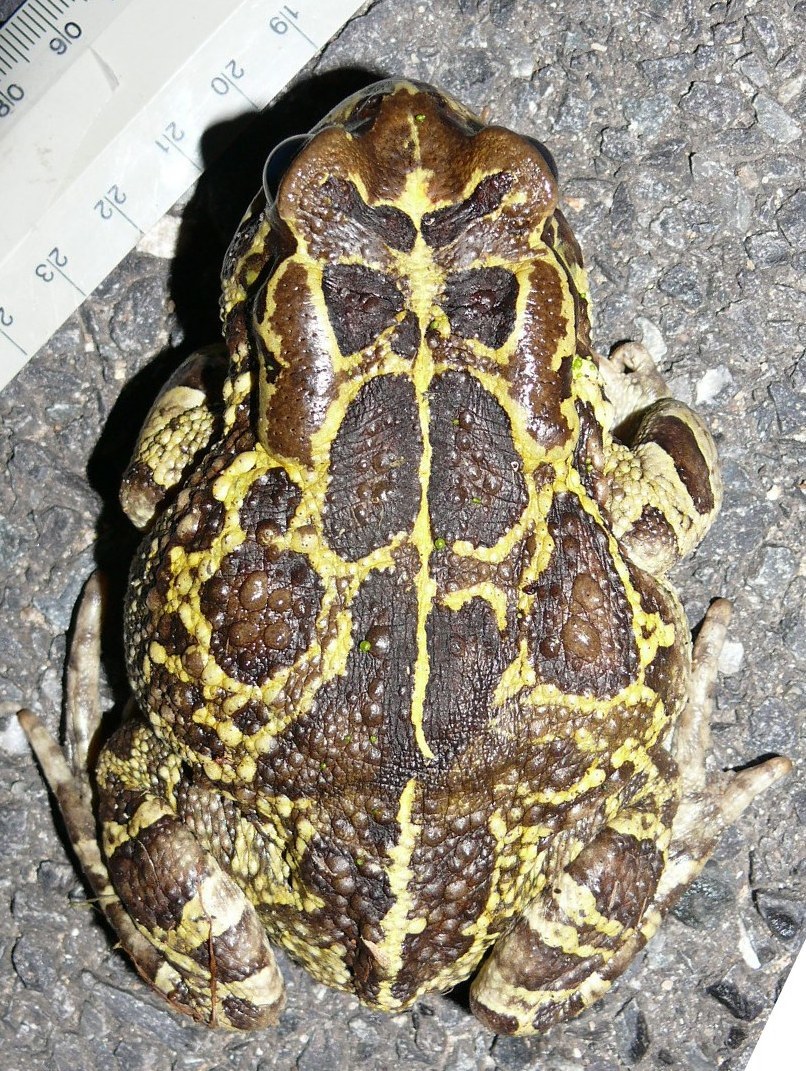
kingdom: Animalia
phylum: Chordata
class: Amphibia
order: Anura
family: Bufonidae
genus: Sclerophrys
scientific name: Sclerophrys pantherina
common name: Panther toad
